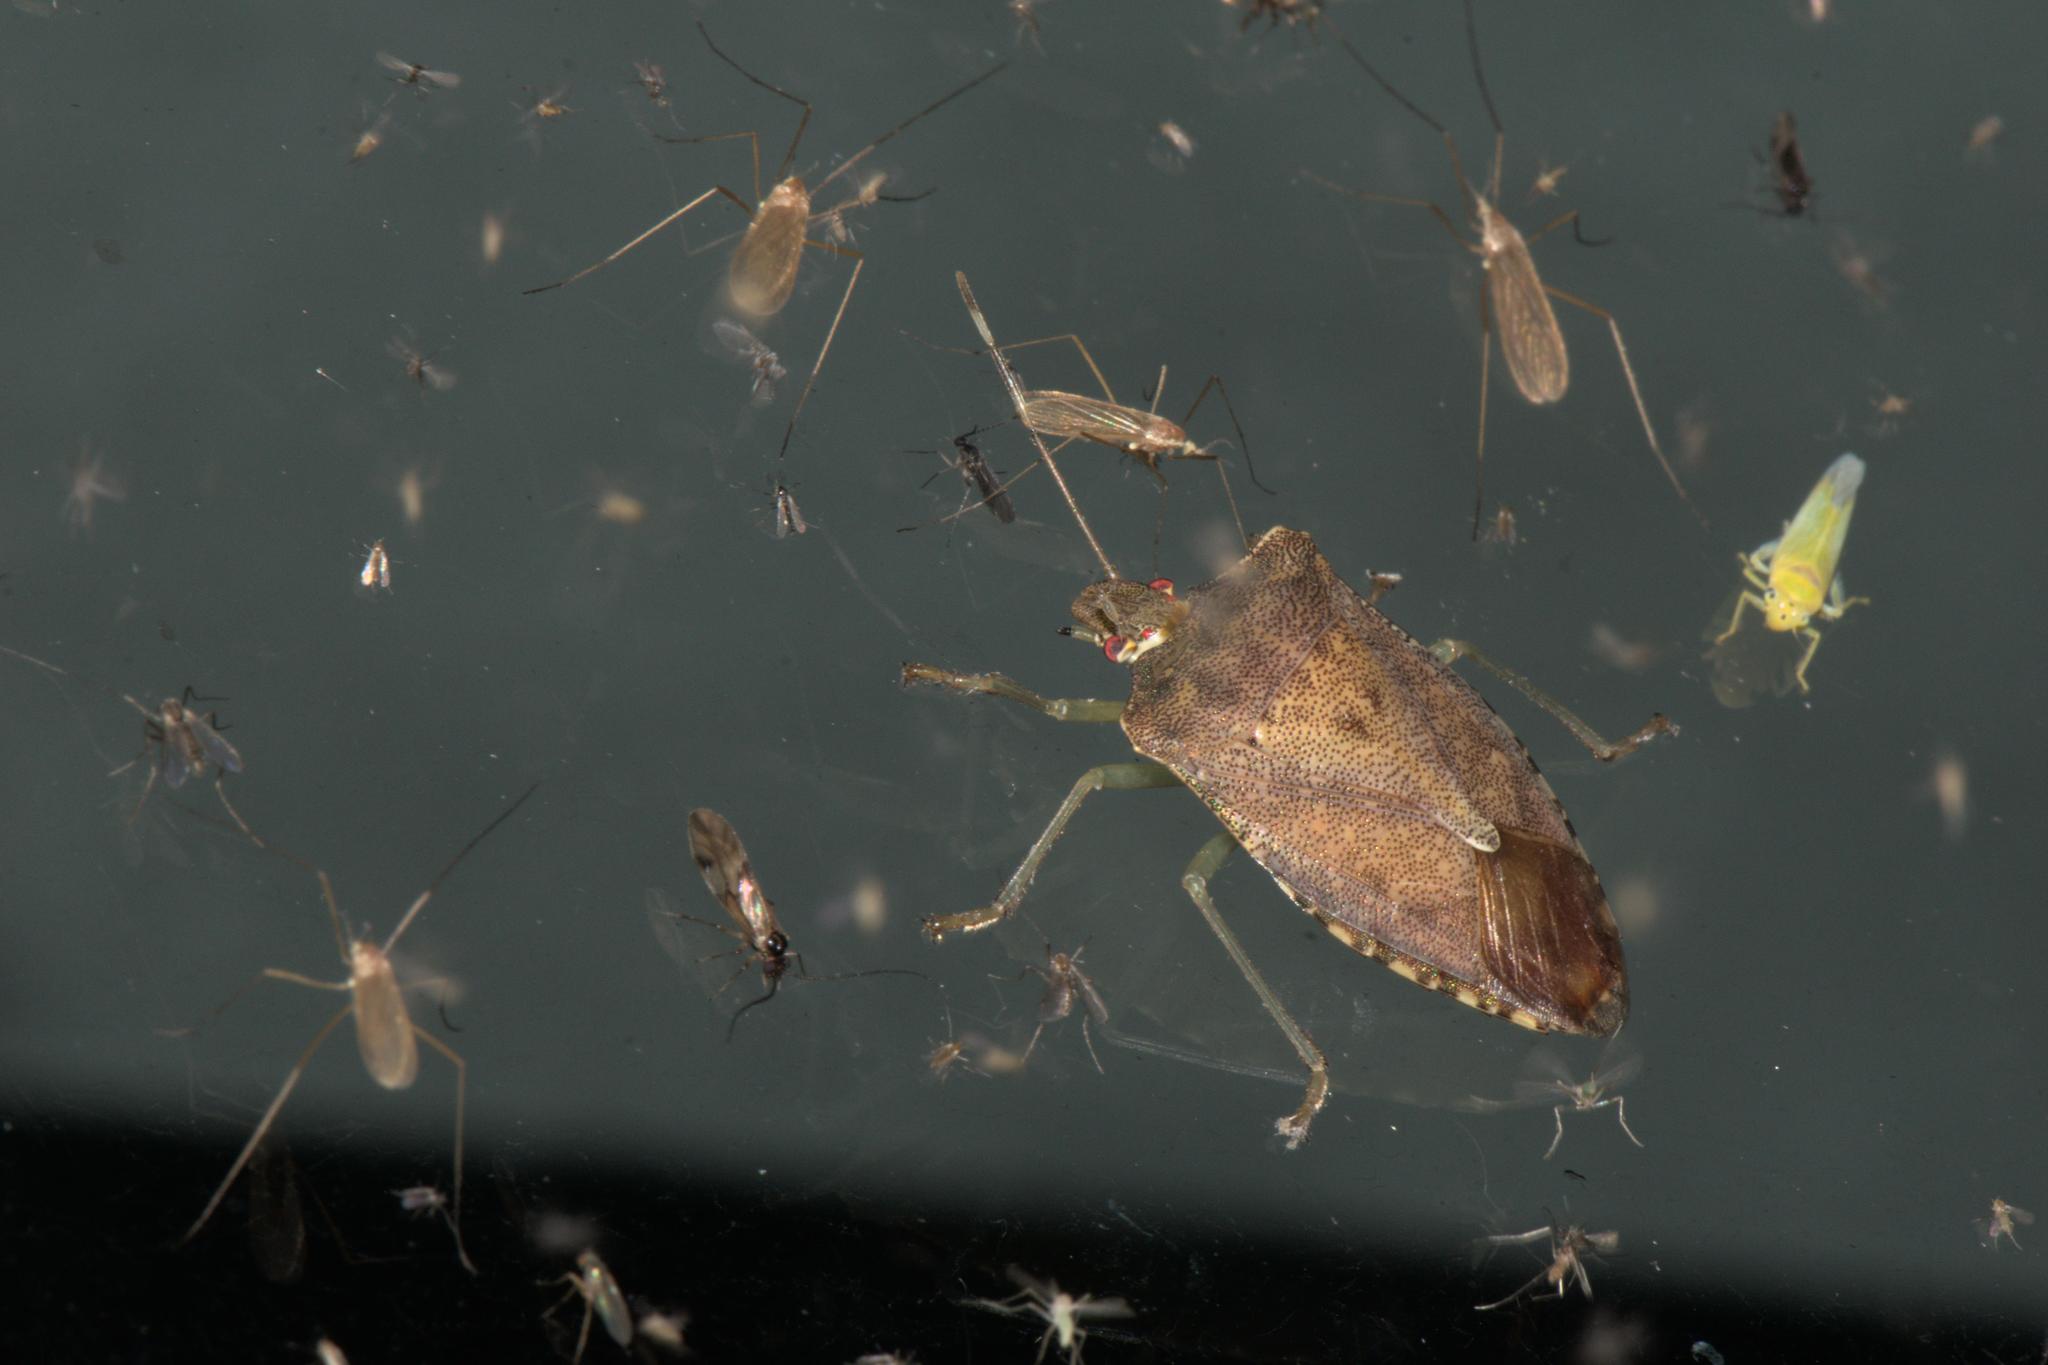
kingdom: Animalia
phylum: Arthropoda
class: Insecta
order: Hemiptera
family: Pentatomidae
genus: Pentatoma
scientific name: Pentatoma
